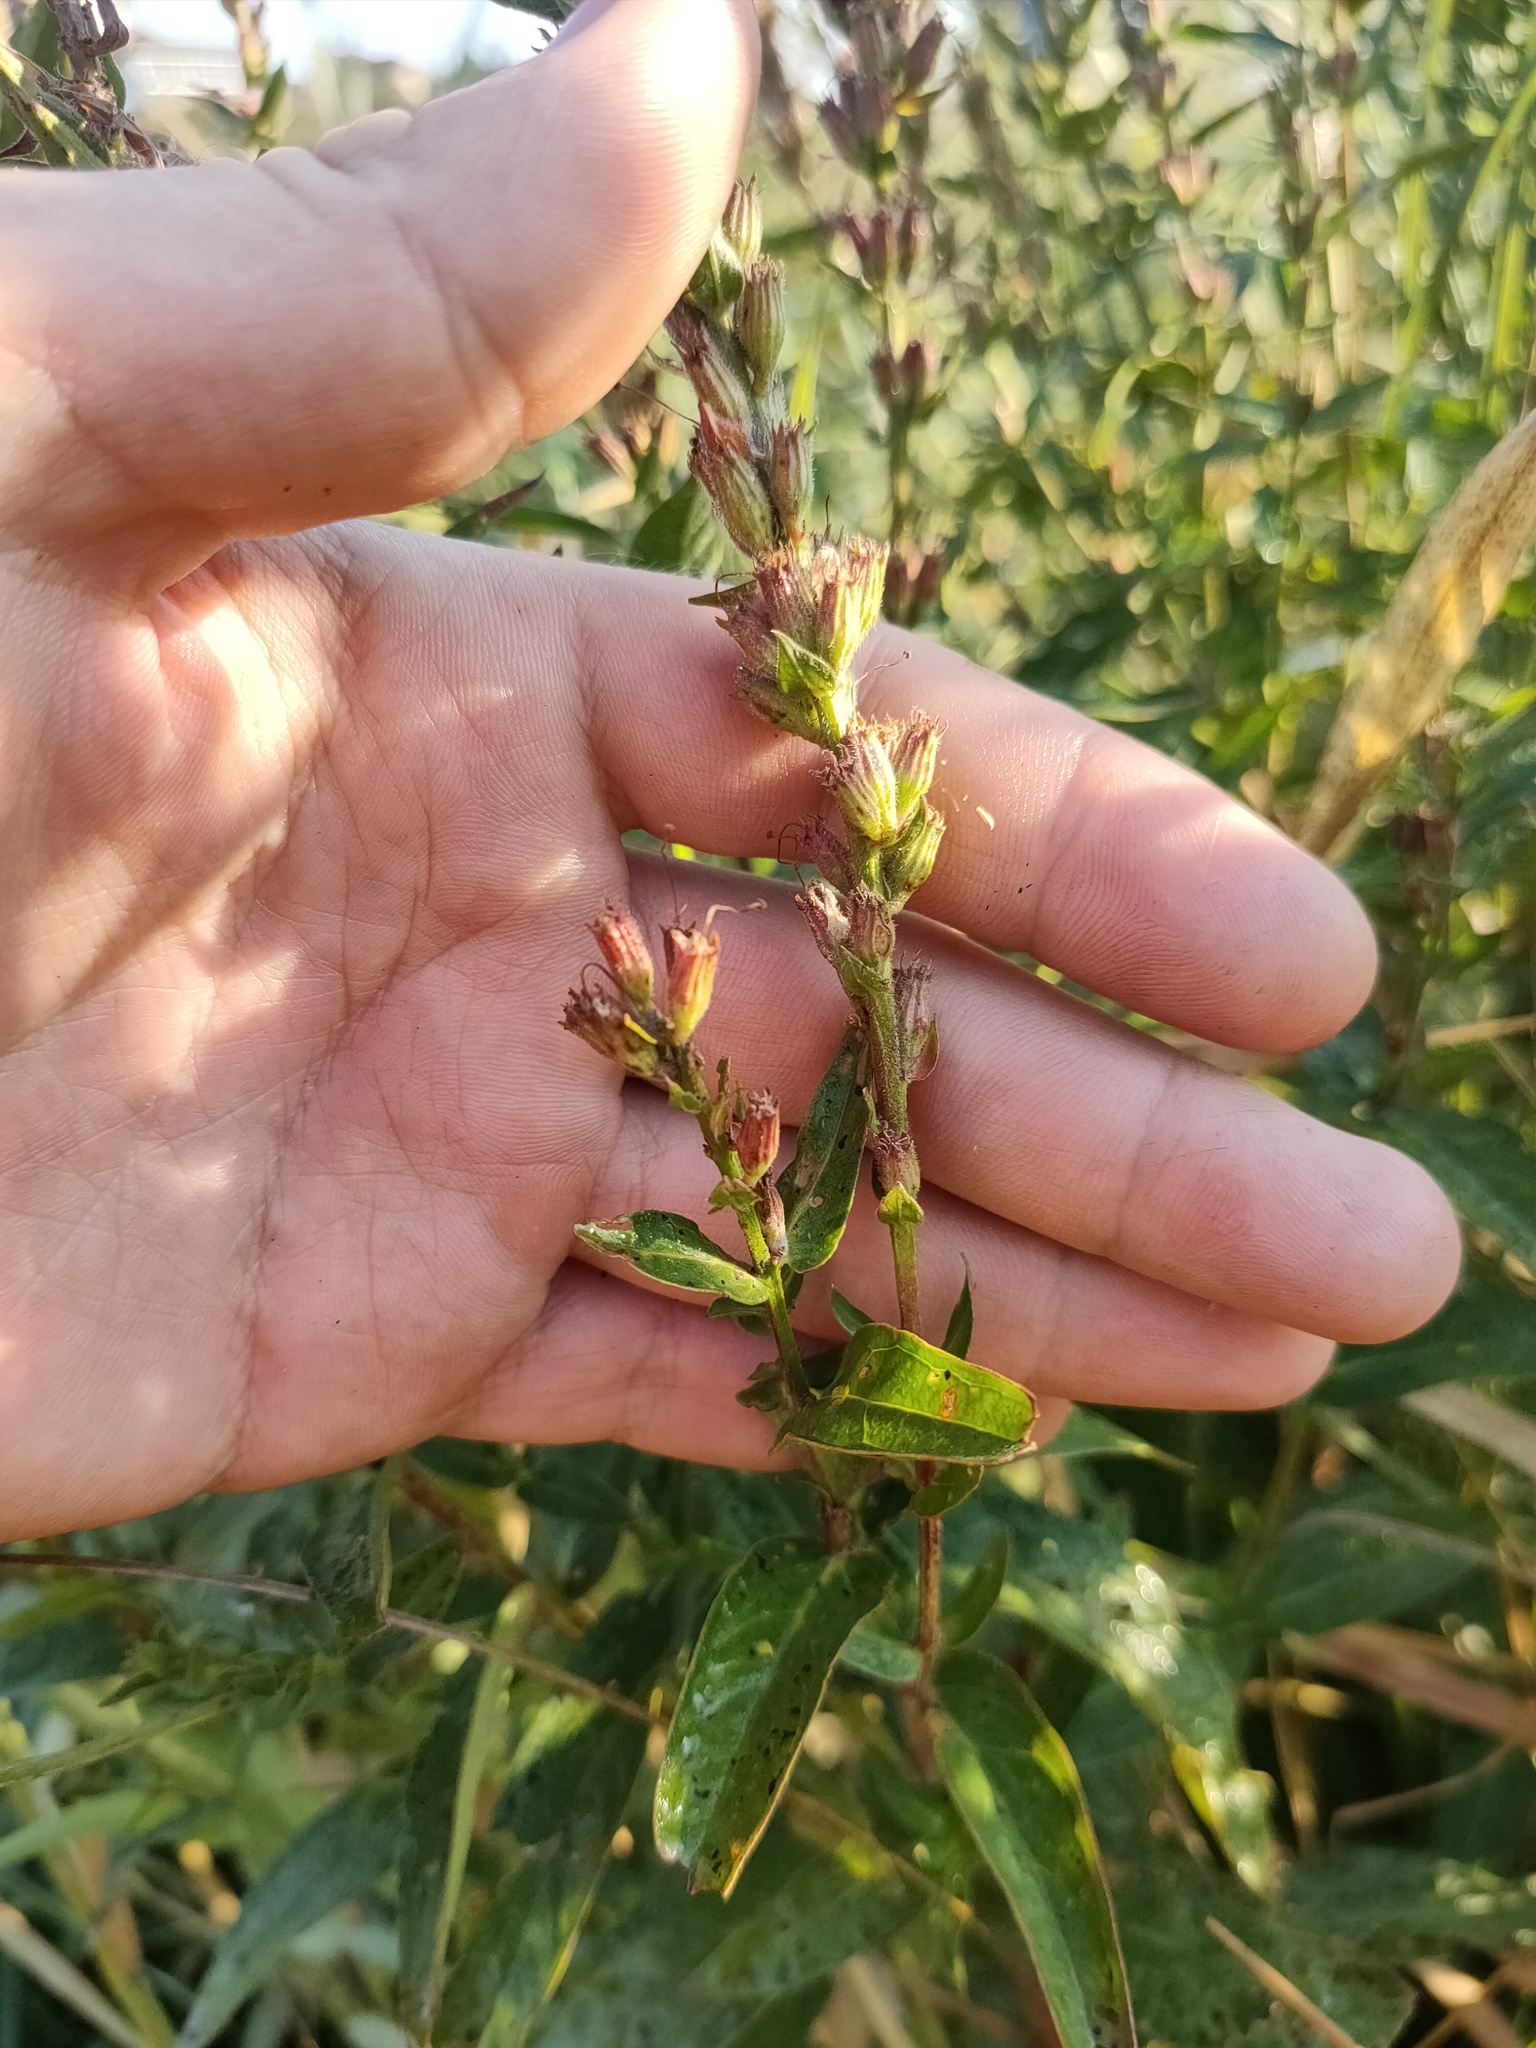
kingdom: Plantae
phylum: Tracheophyta
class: Magnoliopsida
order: Myrtales
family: Lythraceae
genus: Lythrum
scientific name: Lythrum salicaria
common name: Purple loosestrife
